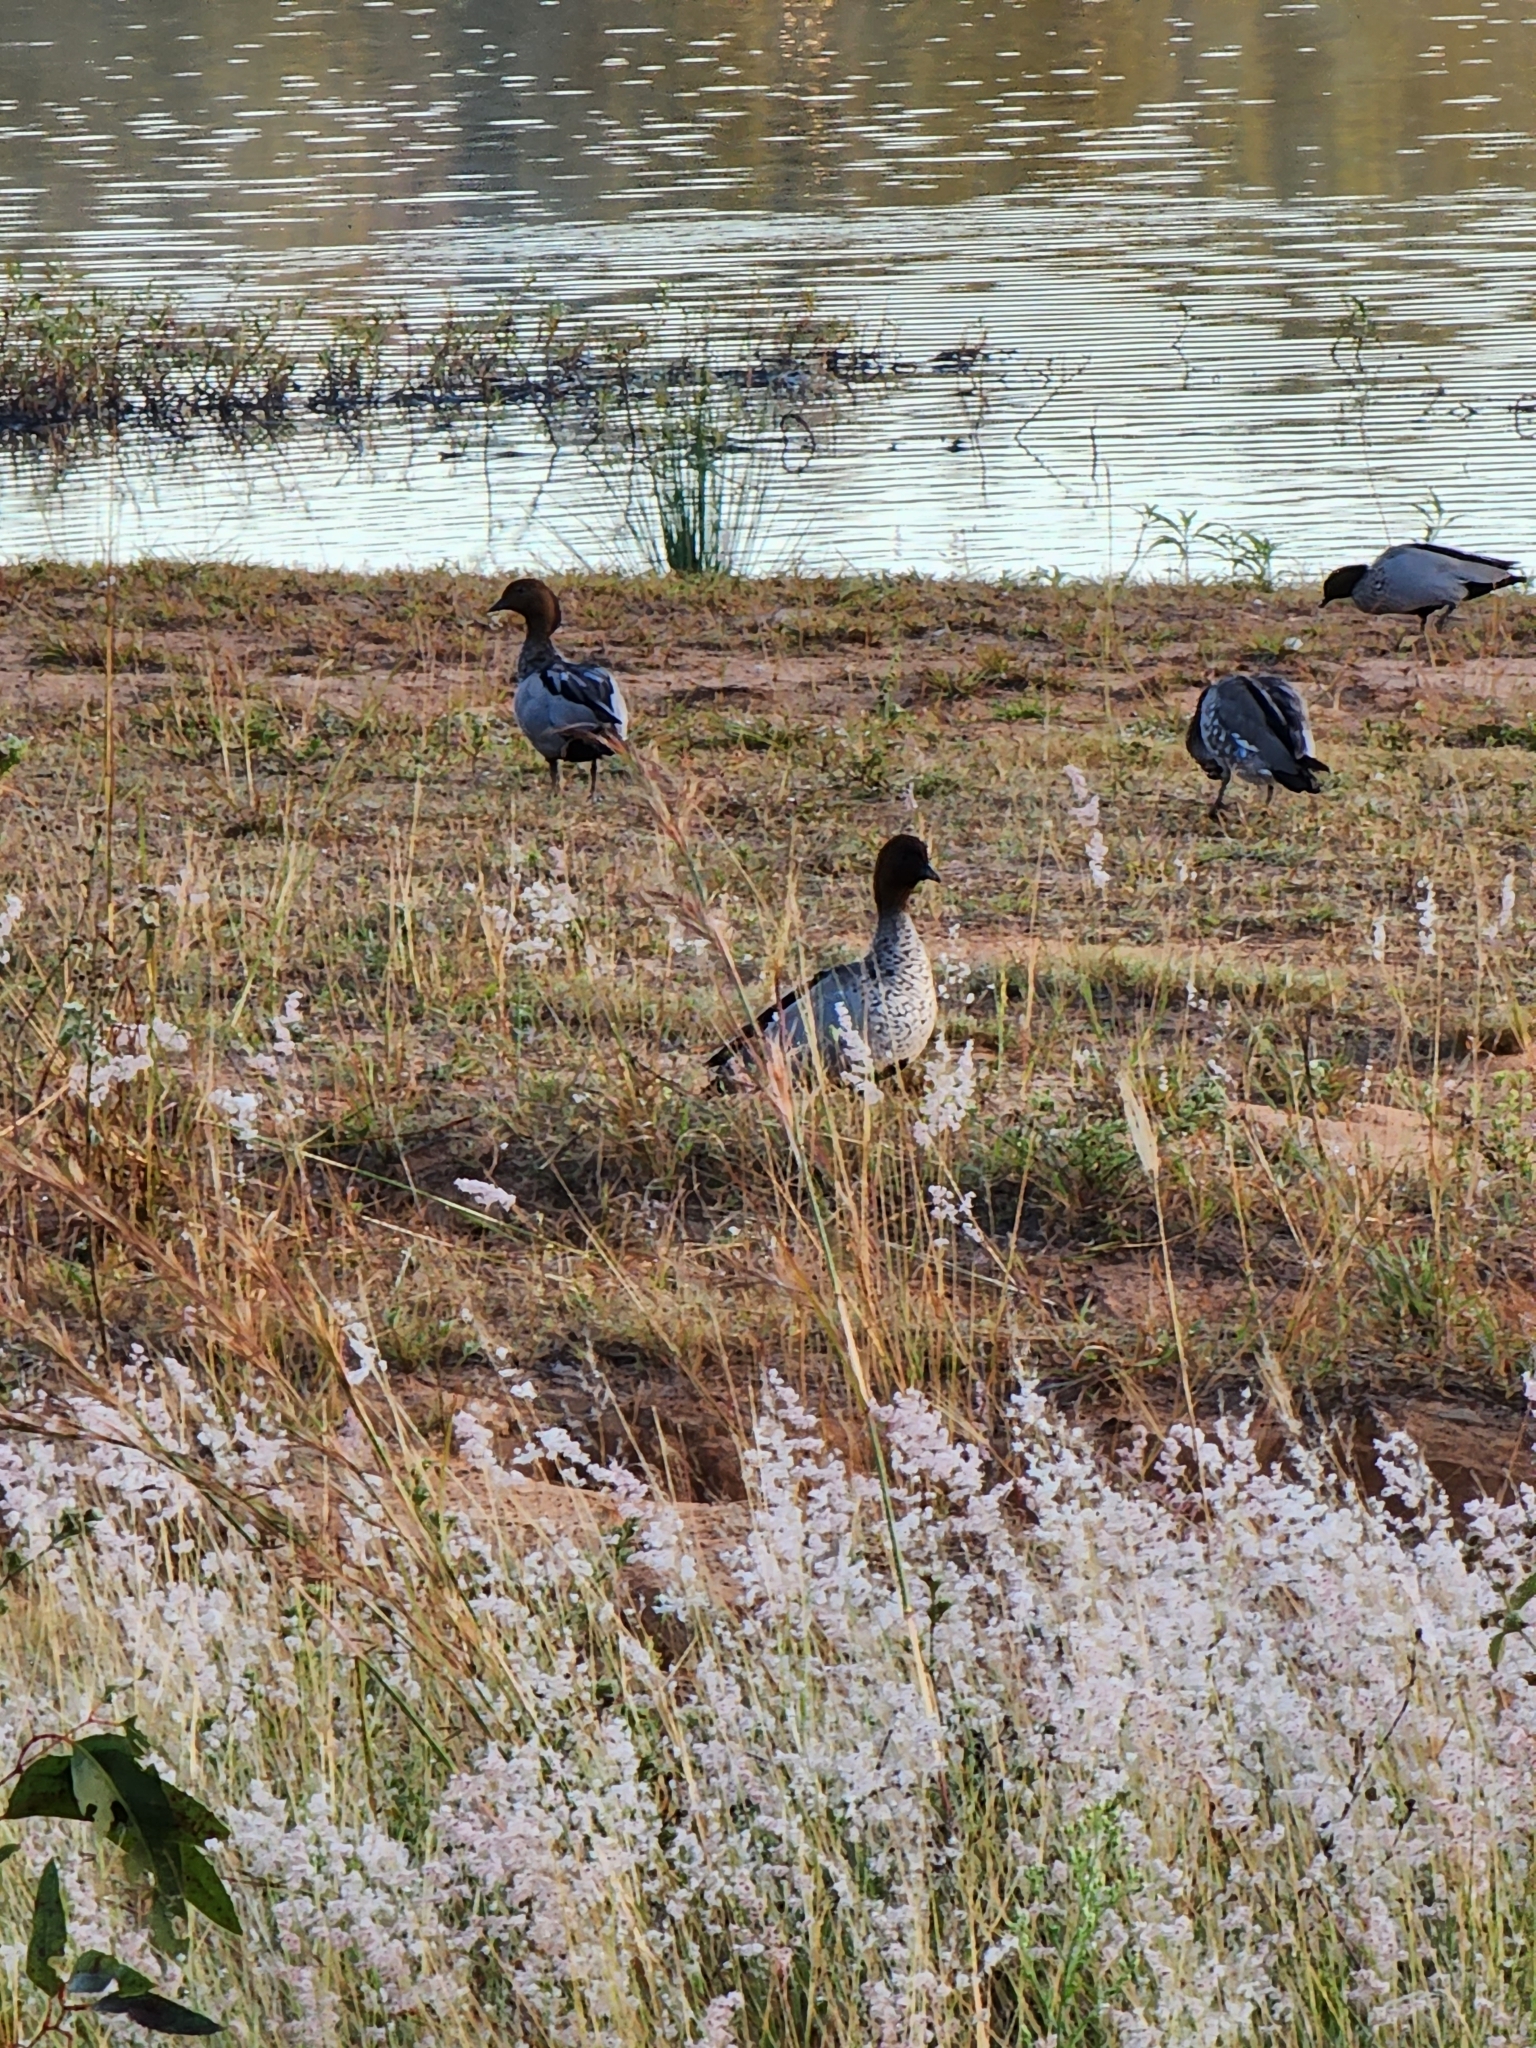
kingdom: Animalia
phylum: Chordata
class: Aves
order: Anseriformes
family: Anatidae
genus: Chenonetta
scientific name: Chenonetta jubata
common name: Maned duck
